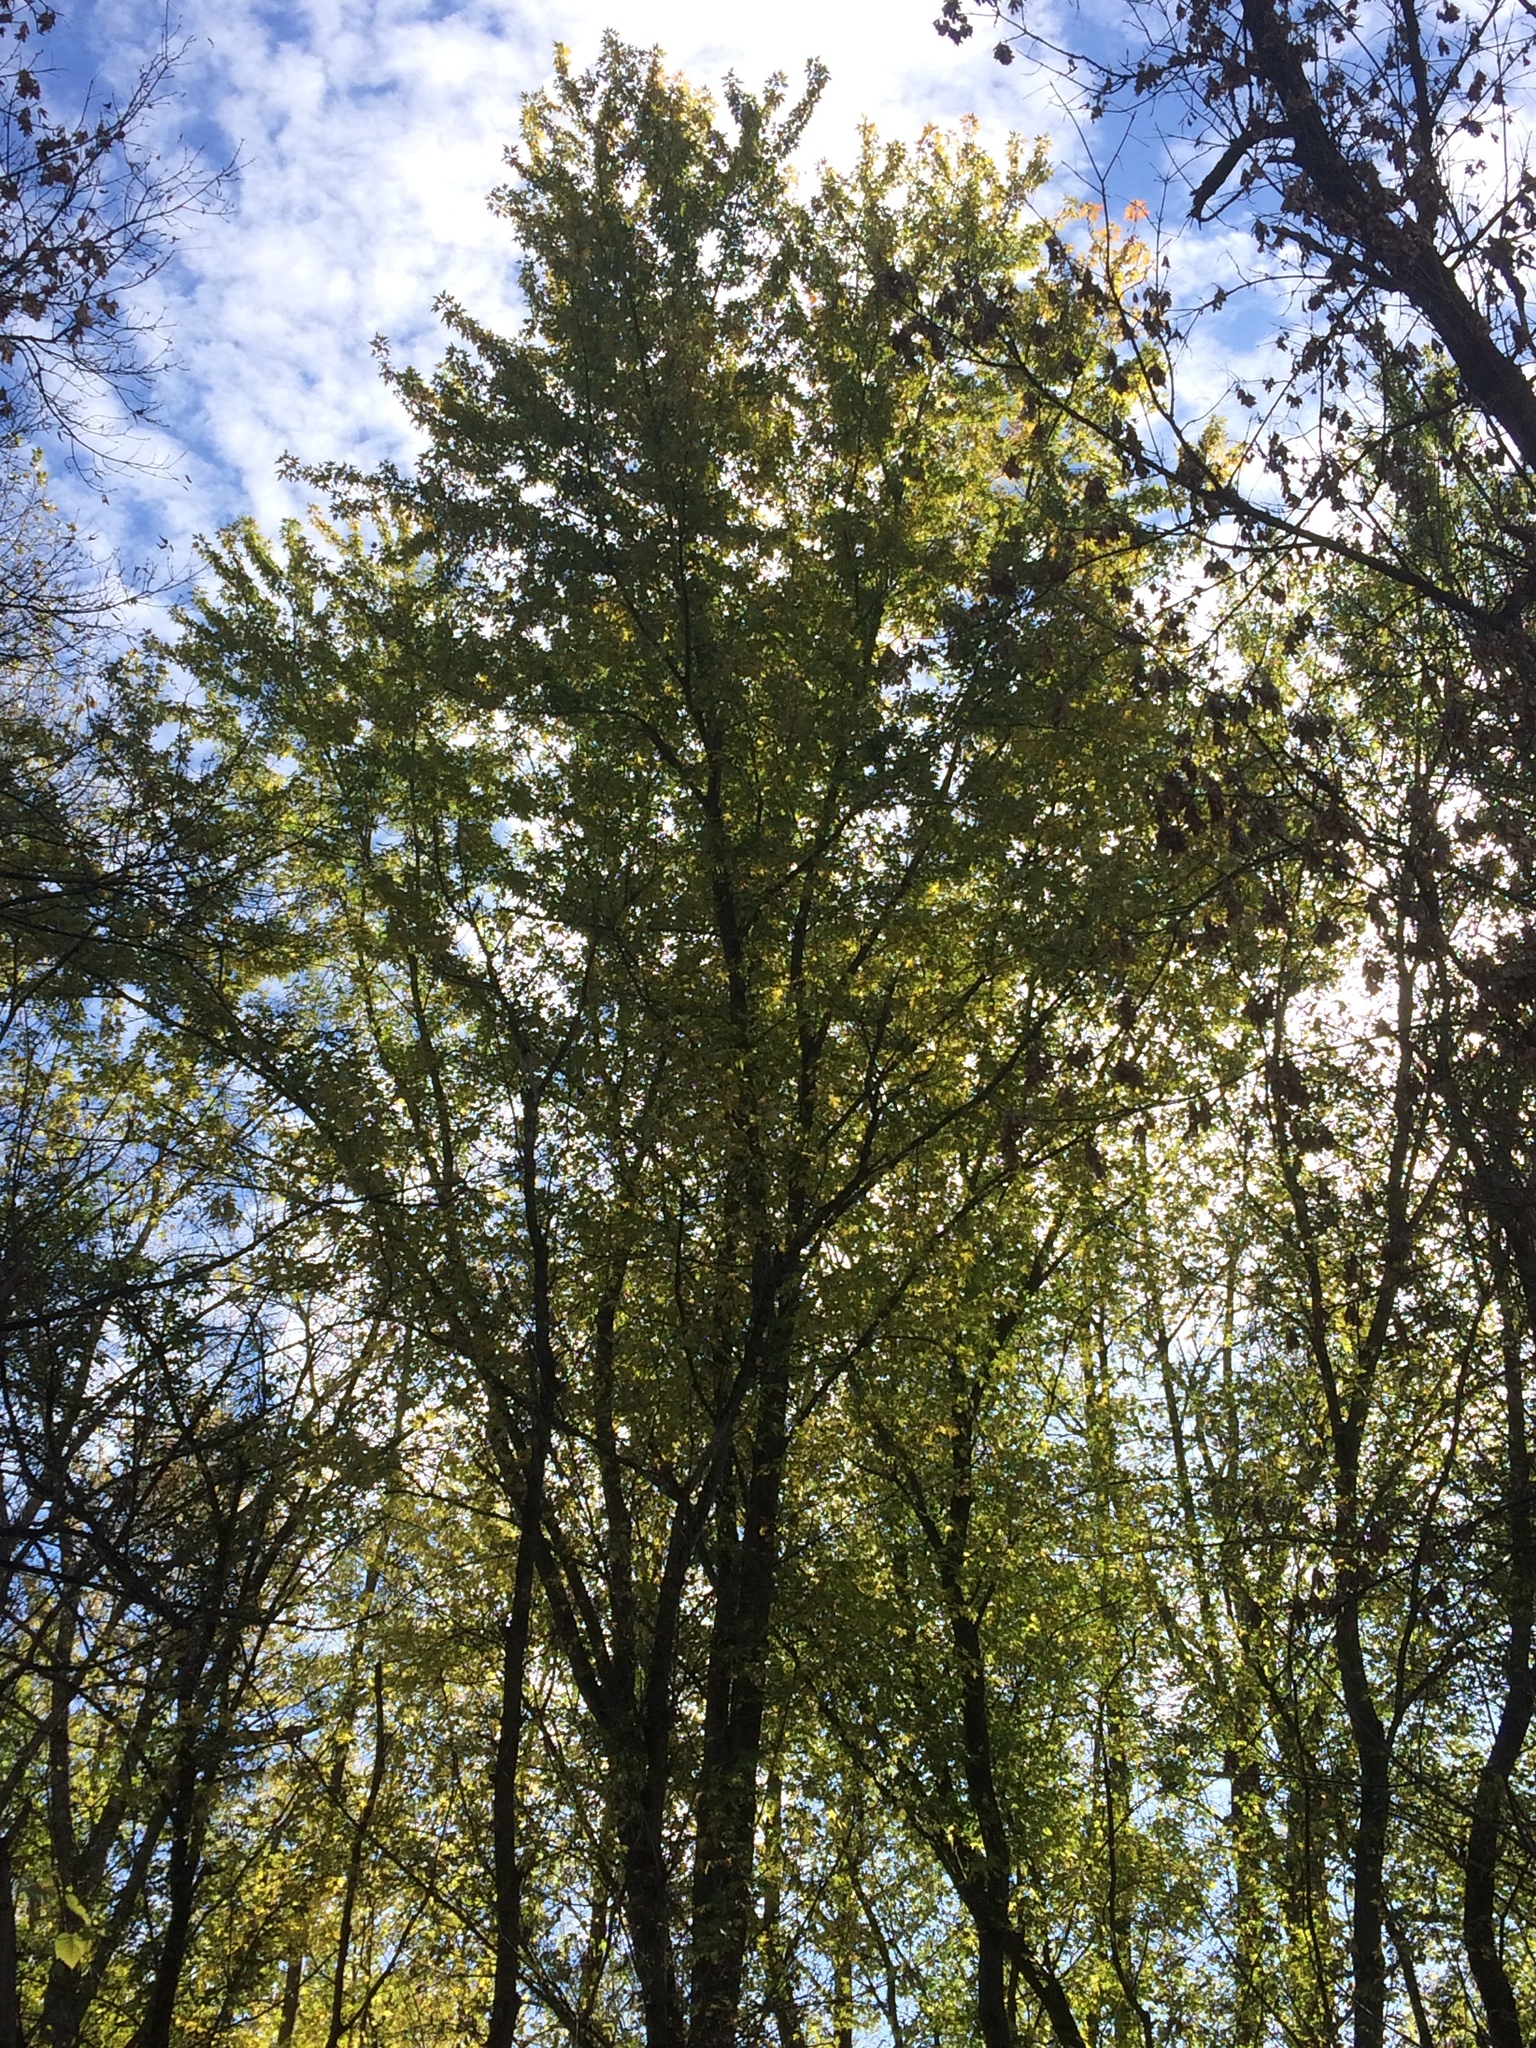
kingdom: Plantae
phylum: Tracheophyta
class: Magnoliopsida
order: Sapindales
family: Sapindaceae
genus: Acer
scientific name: Acer saccharinum
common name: Silver maple
